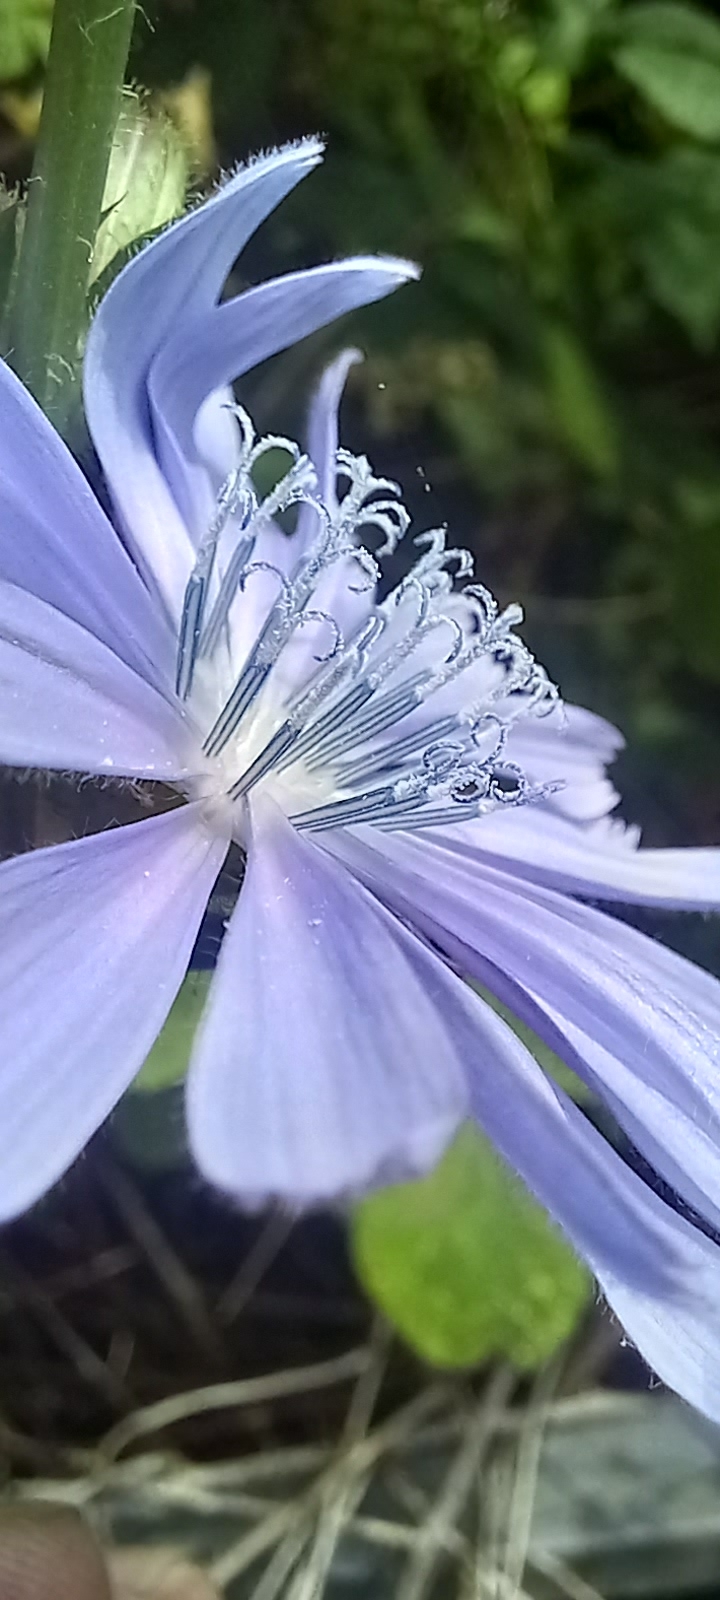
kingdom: Plantae
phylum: Tracheophyta
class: Magnoliopsida
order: Asterales
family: Asteraceae
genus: Cichorium
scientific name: Cichorium intybus
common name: Chicory
